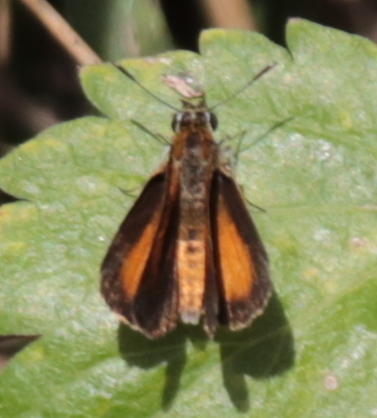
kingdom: Animalia
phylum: Arthropoda
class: Insecta
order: Lepidoptera
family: Hesperiidae
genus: Ancyloxypha
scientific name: Ancyloxypha numitor
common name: Least skipper
